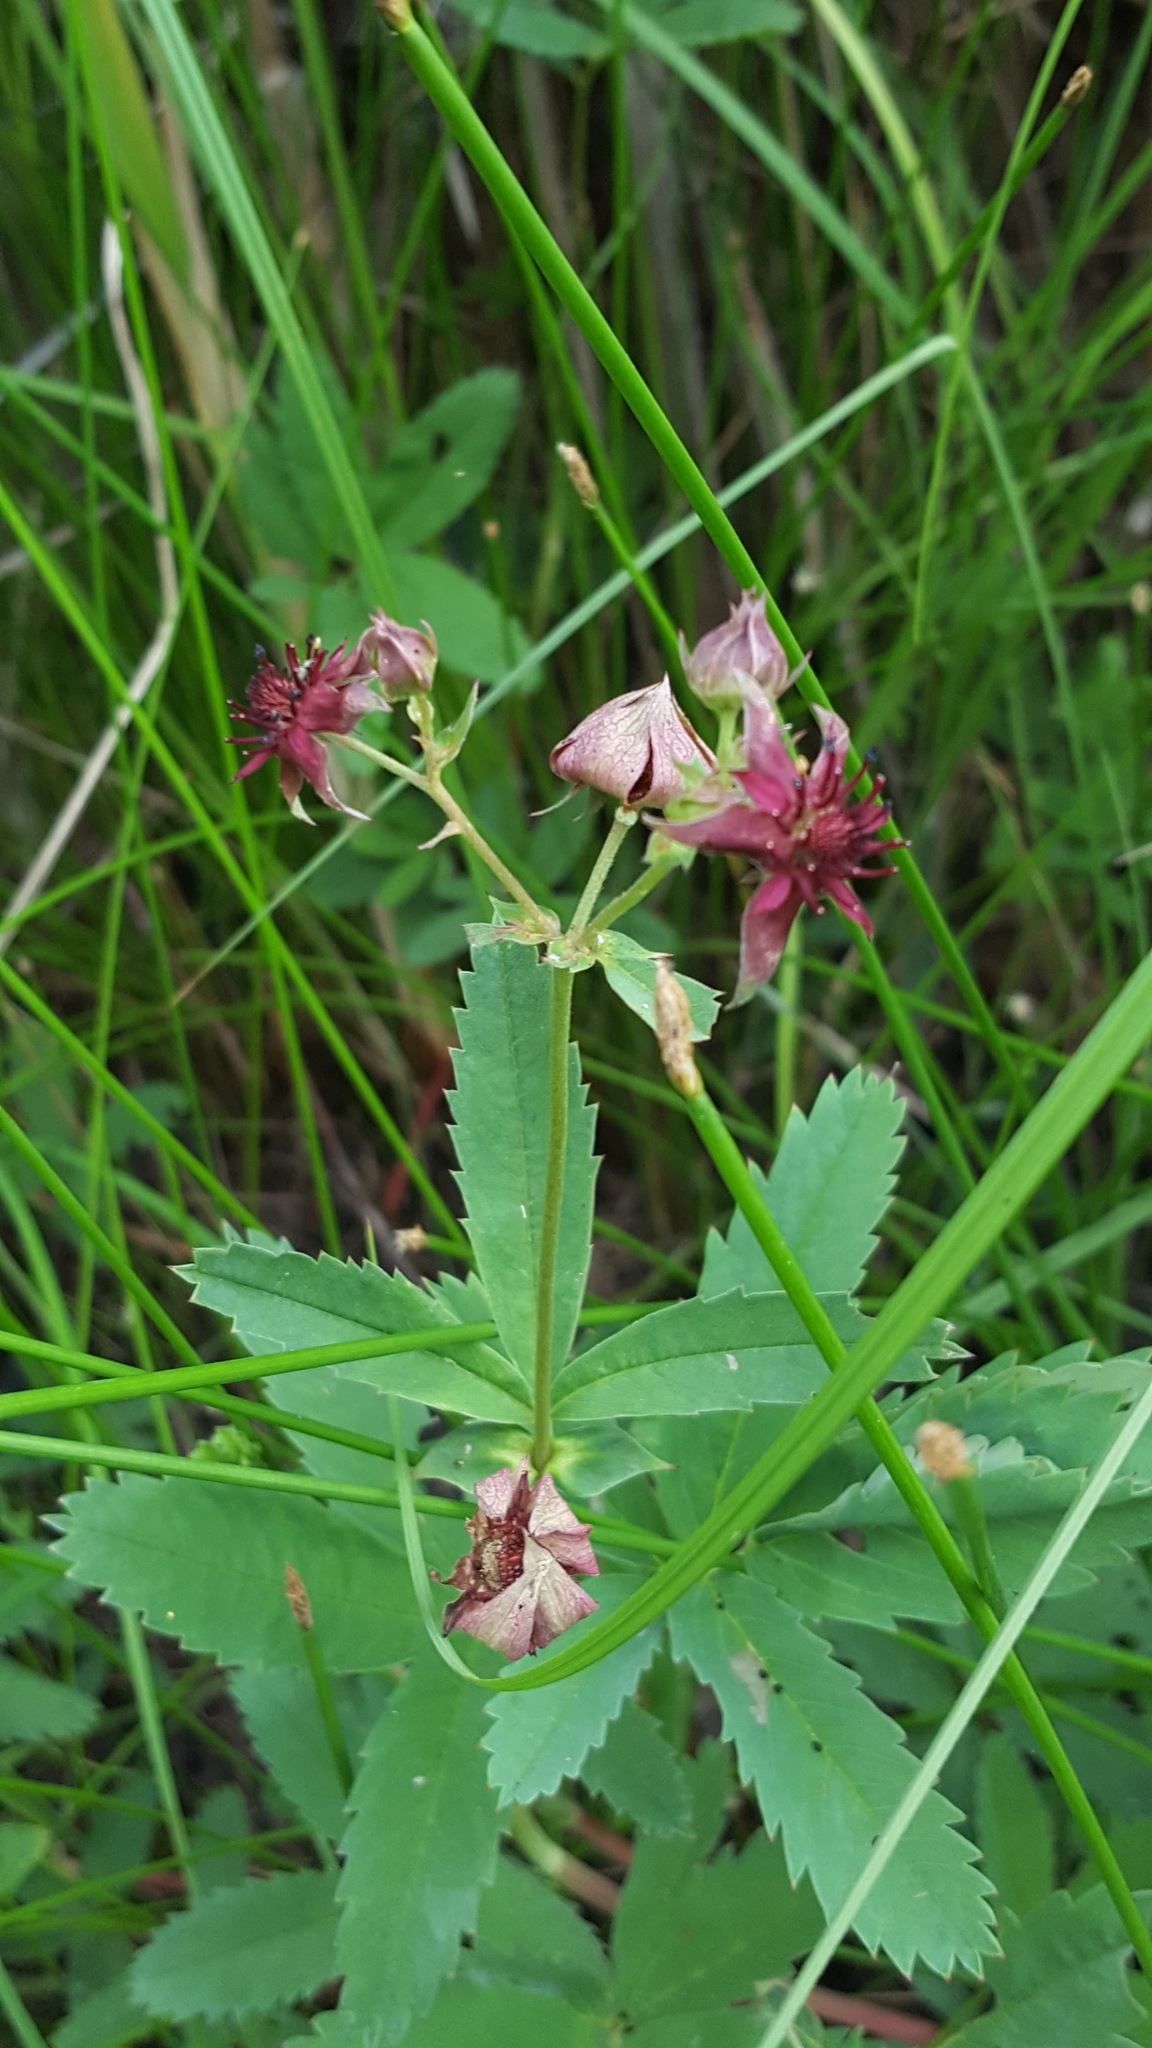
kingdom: Plantae
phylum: Tracheophyta
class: Magnoliopsida
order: Rosales
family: Rosaceae
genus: Comarum
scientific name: Comarum palustre
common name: Marsh cinquefoil
